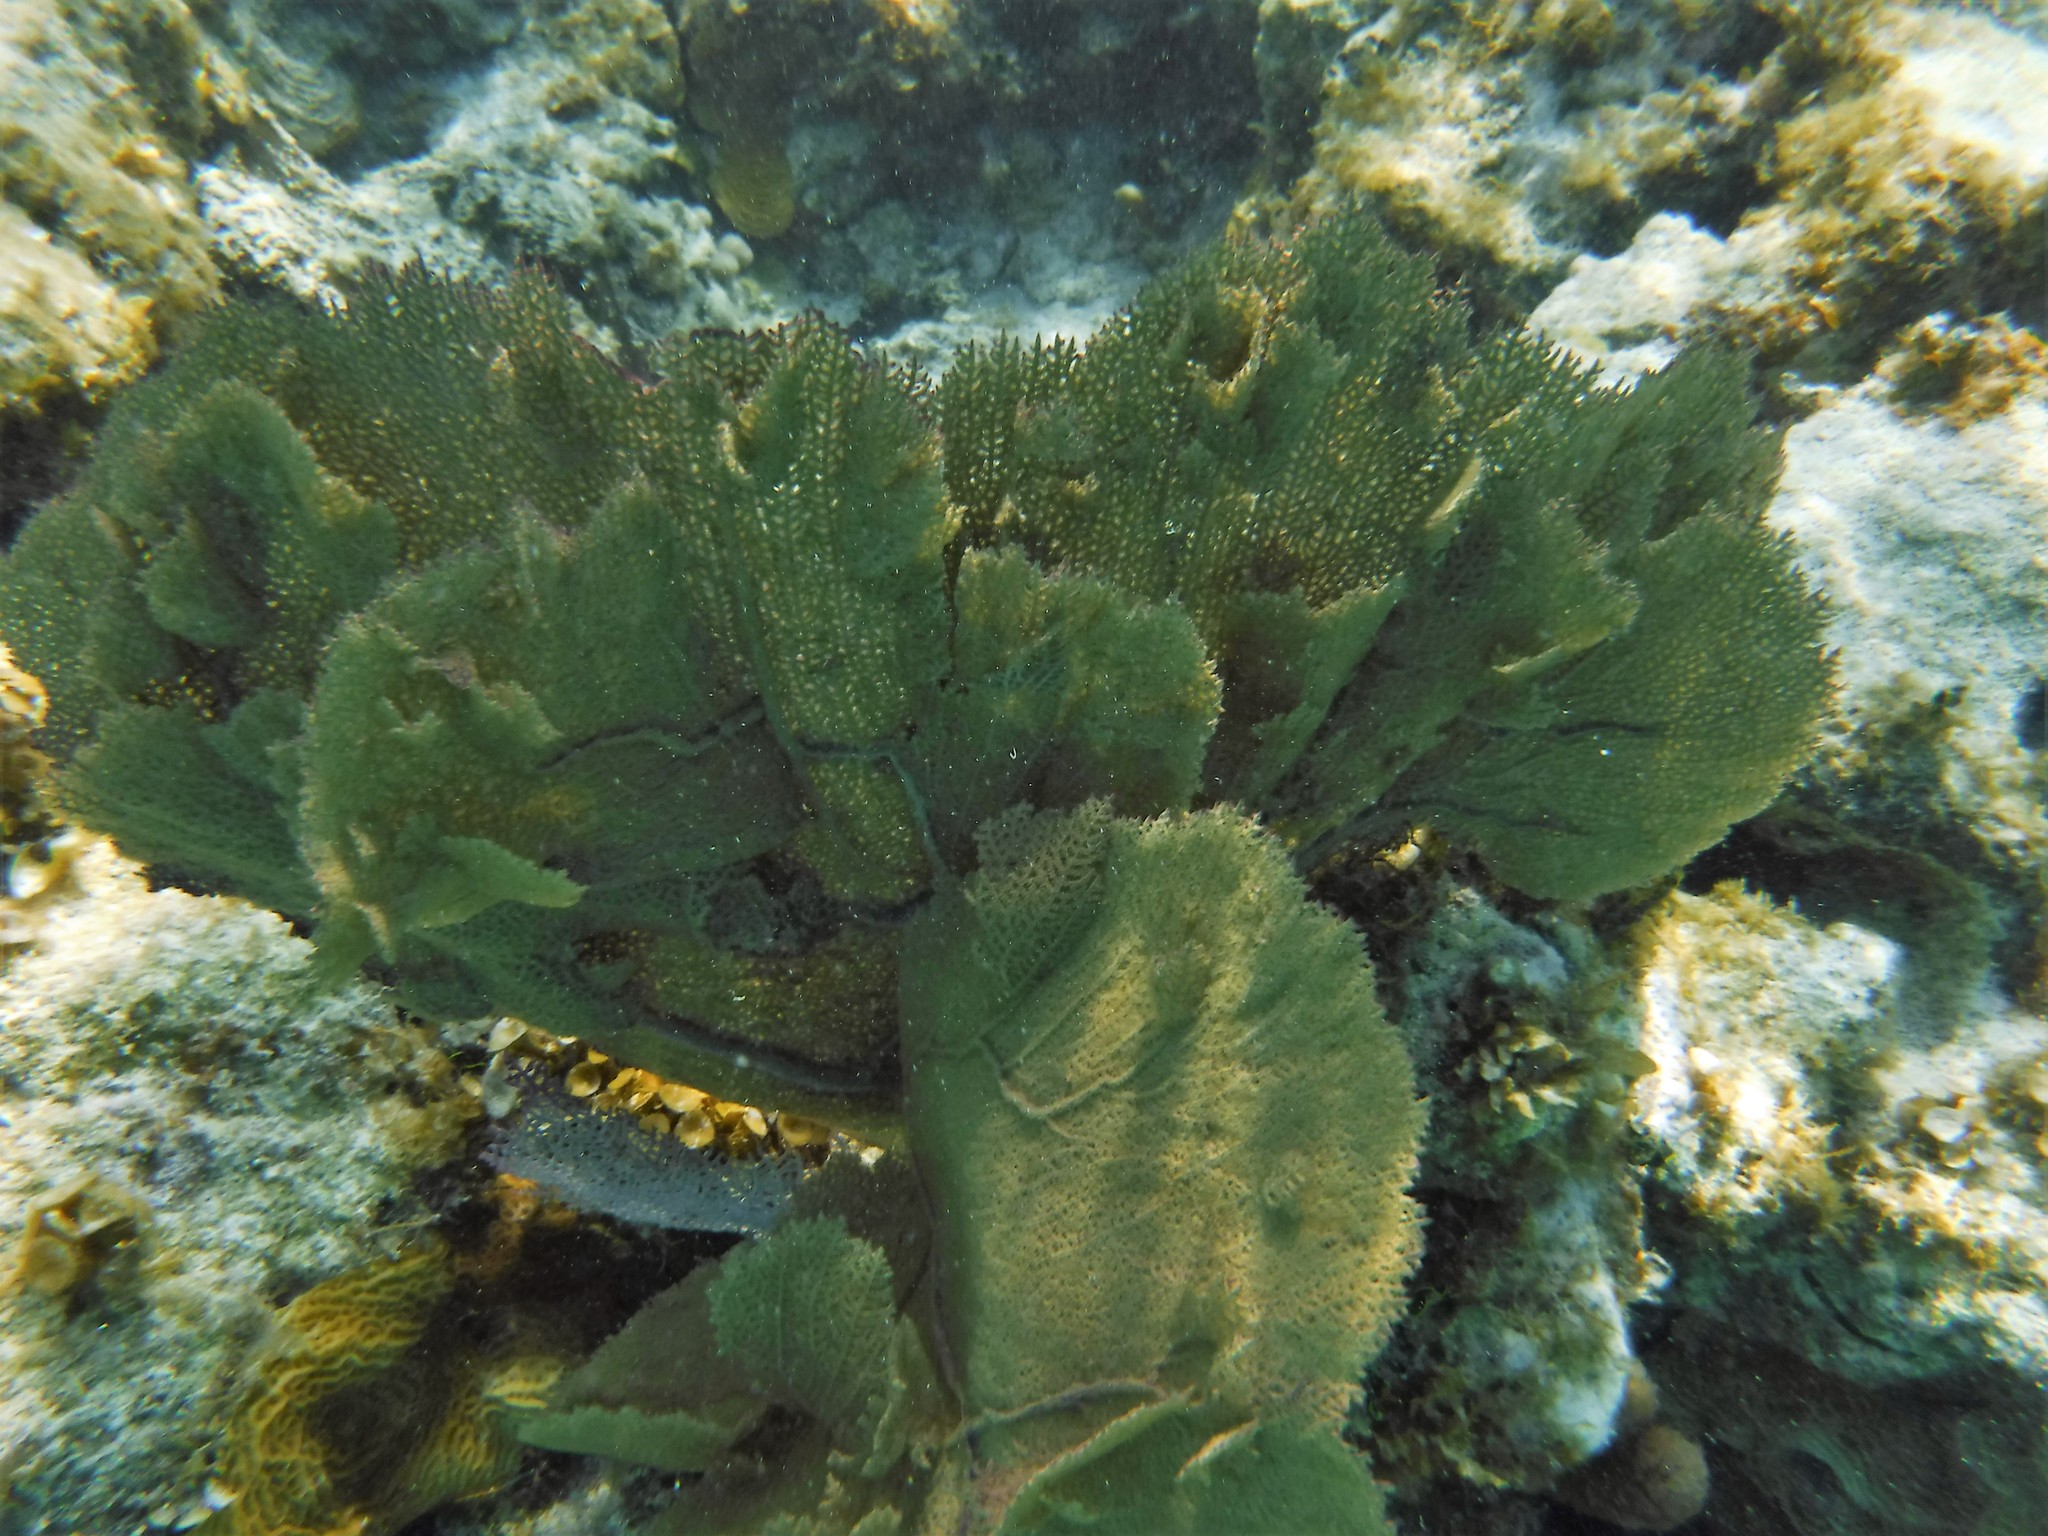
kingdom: Animalia
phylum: Cnidaria
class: Anthozoa
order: Malacalcyonacea
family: Gorgoniidae
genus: Gorgonia
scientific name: Gorgonia ventalina
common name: Common sea fan
